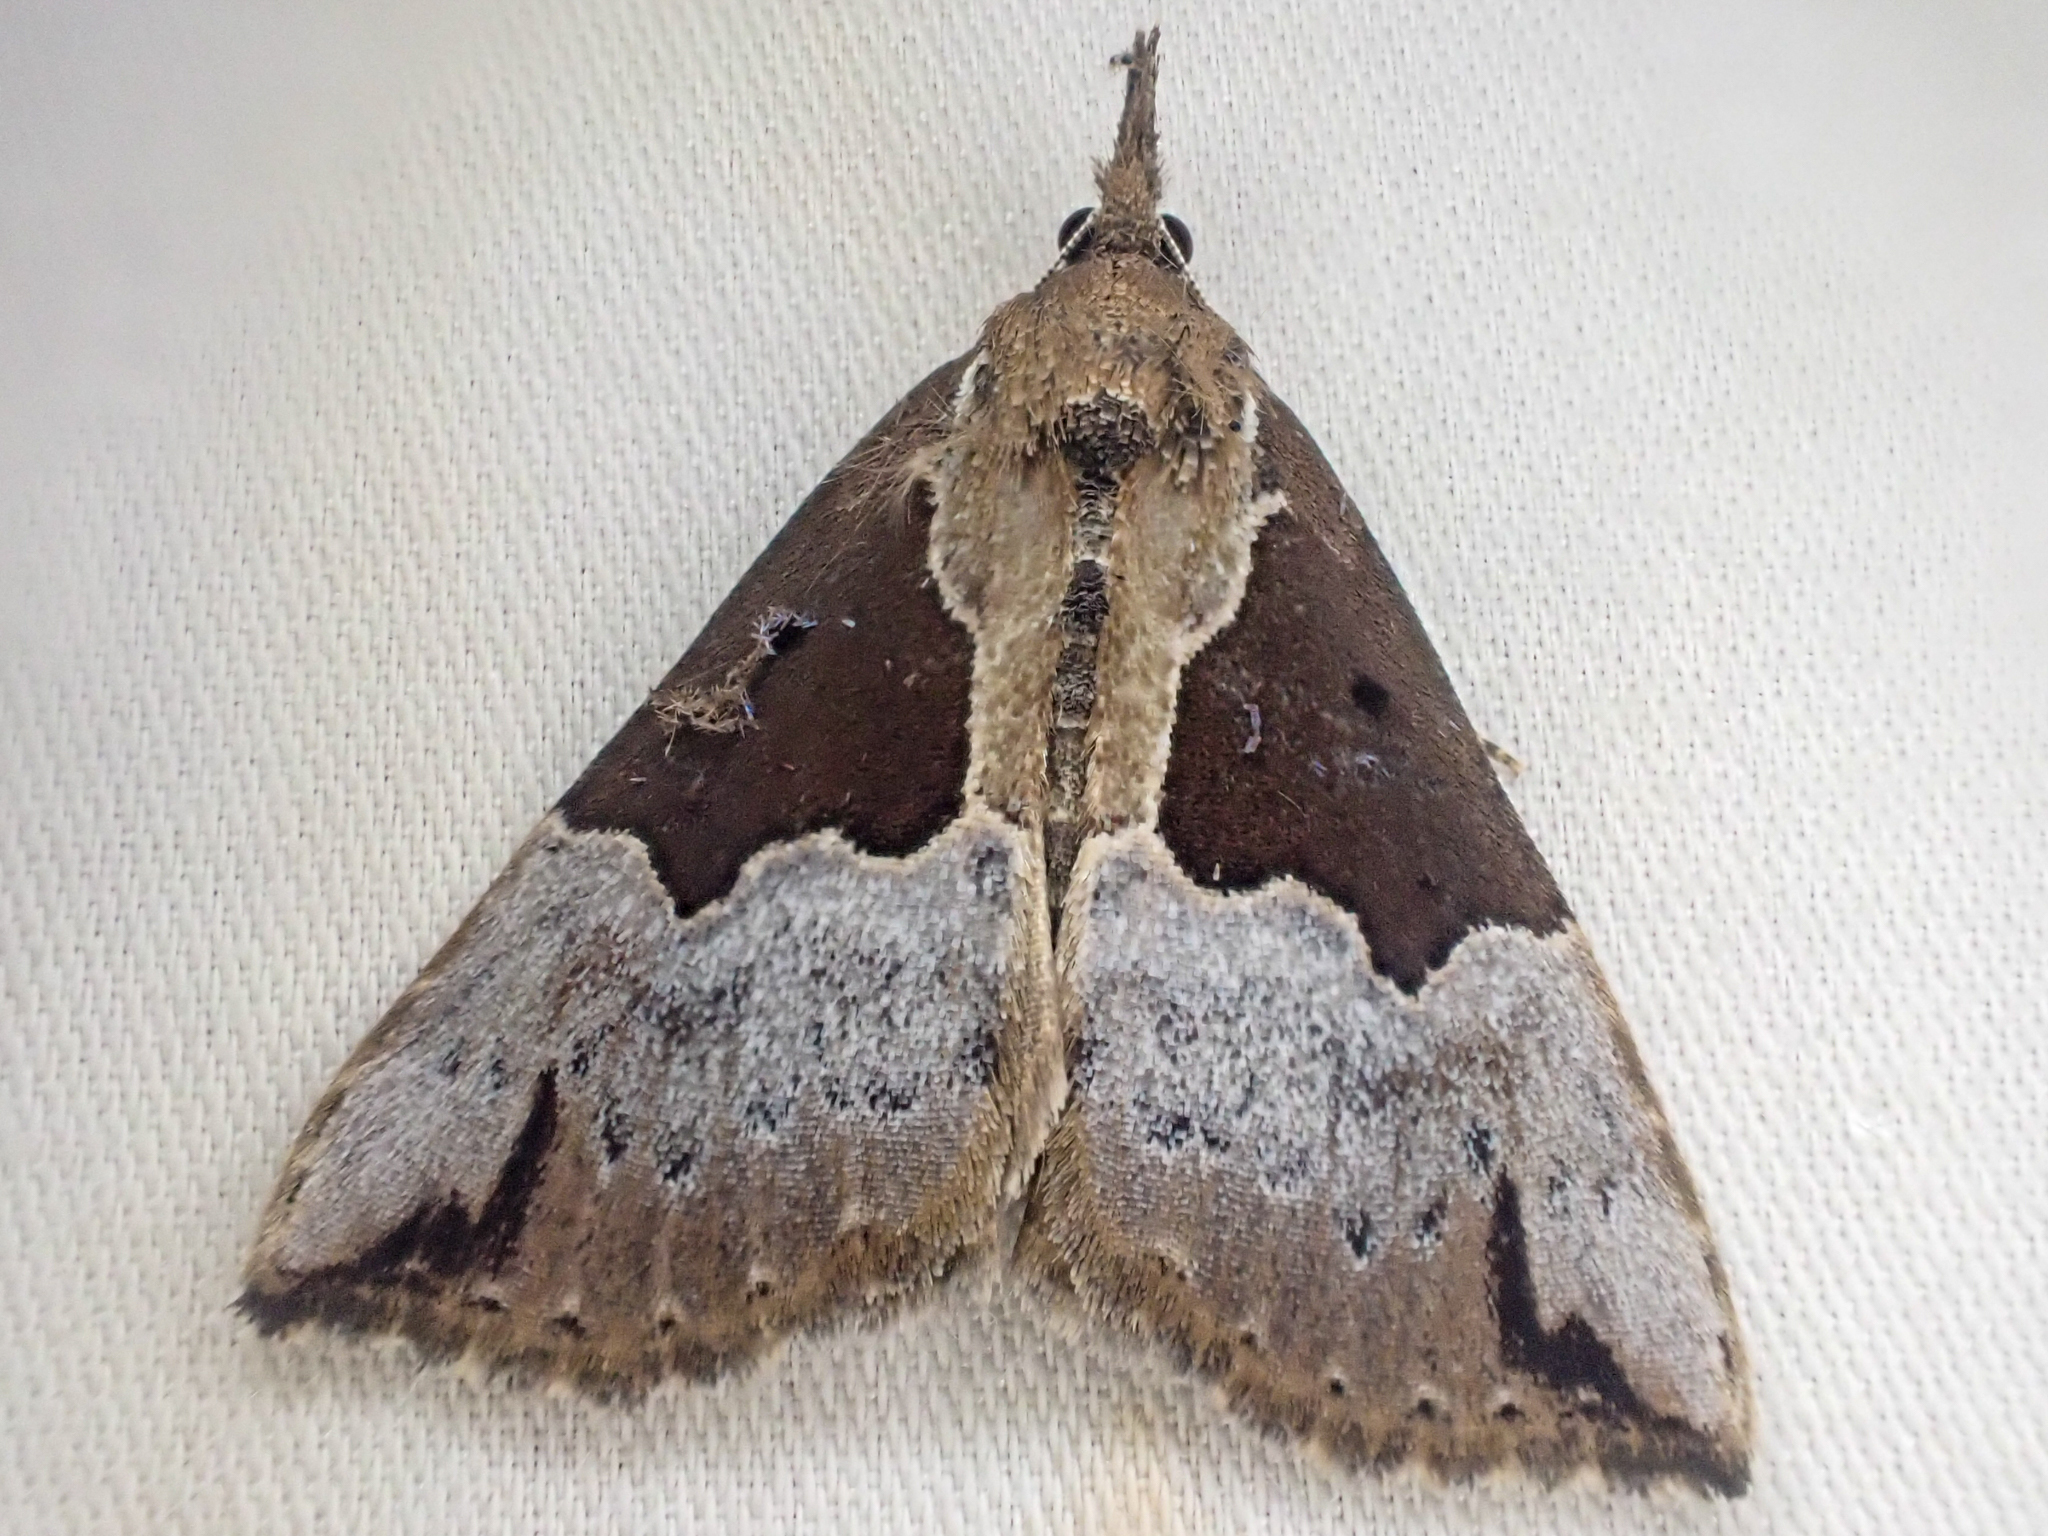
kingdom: Animalia
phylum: Arthropoda
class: Insecta
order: Lepidoptera
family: Erebidae
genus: Hypena
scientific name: Hypena bijugalis
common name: Dimorphic bomolocha moth
